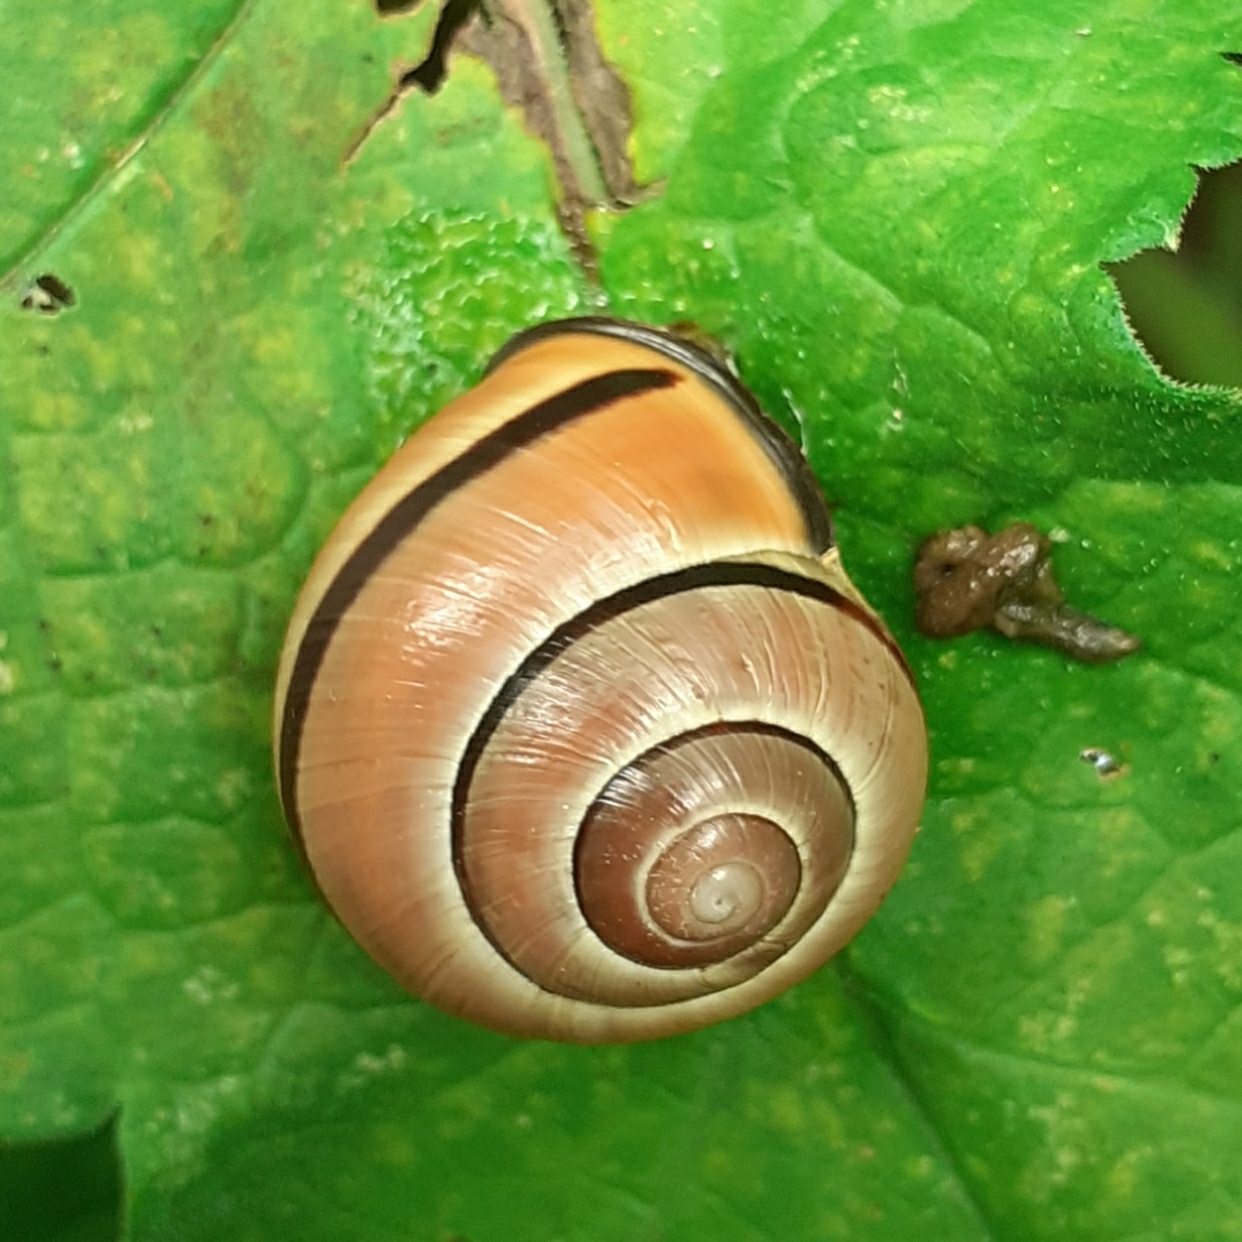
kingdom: Animalia
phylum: Mollusca
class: Gastropoda
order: Stylommatophora
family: Helicidae
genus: Cepaea
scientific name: Cepaea nemoralis
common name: Grovesnail
